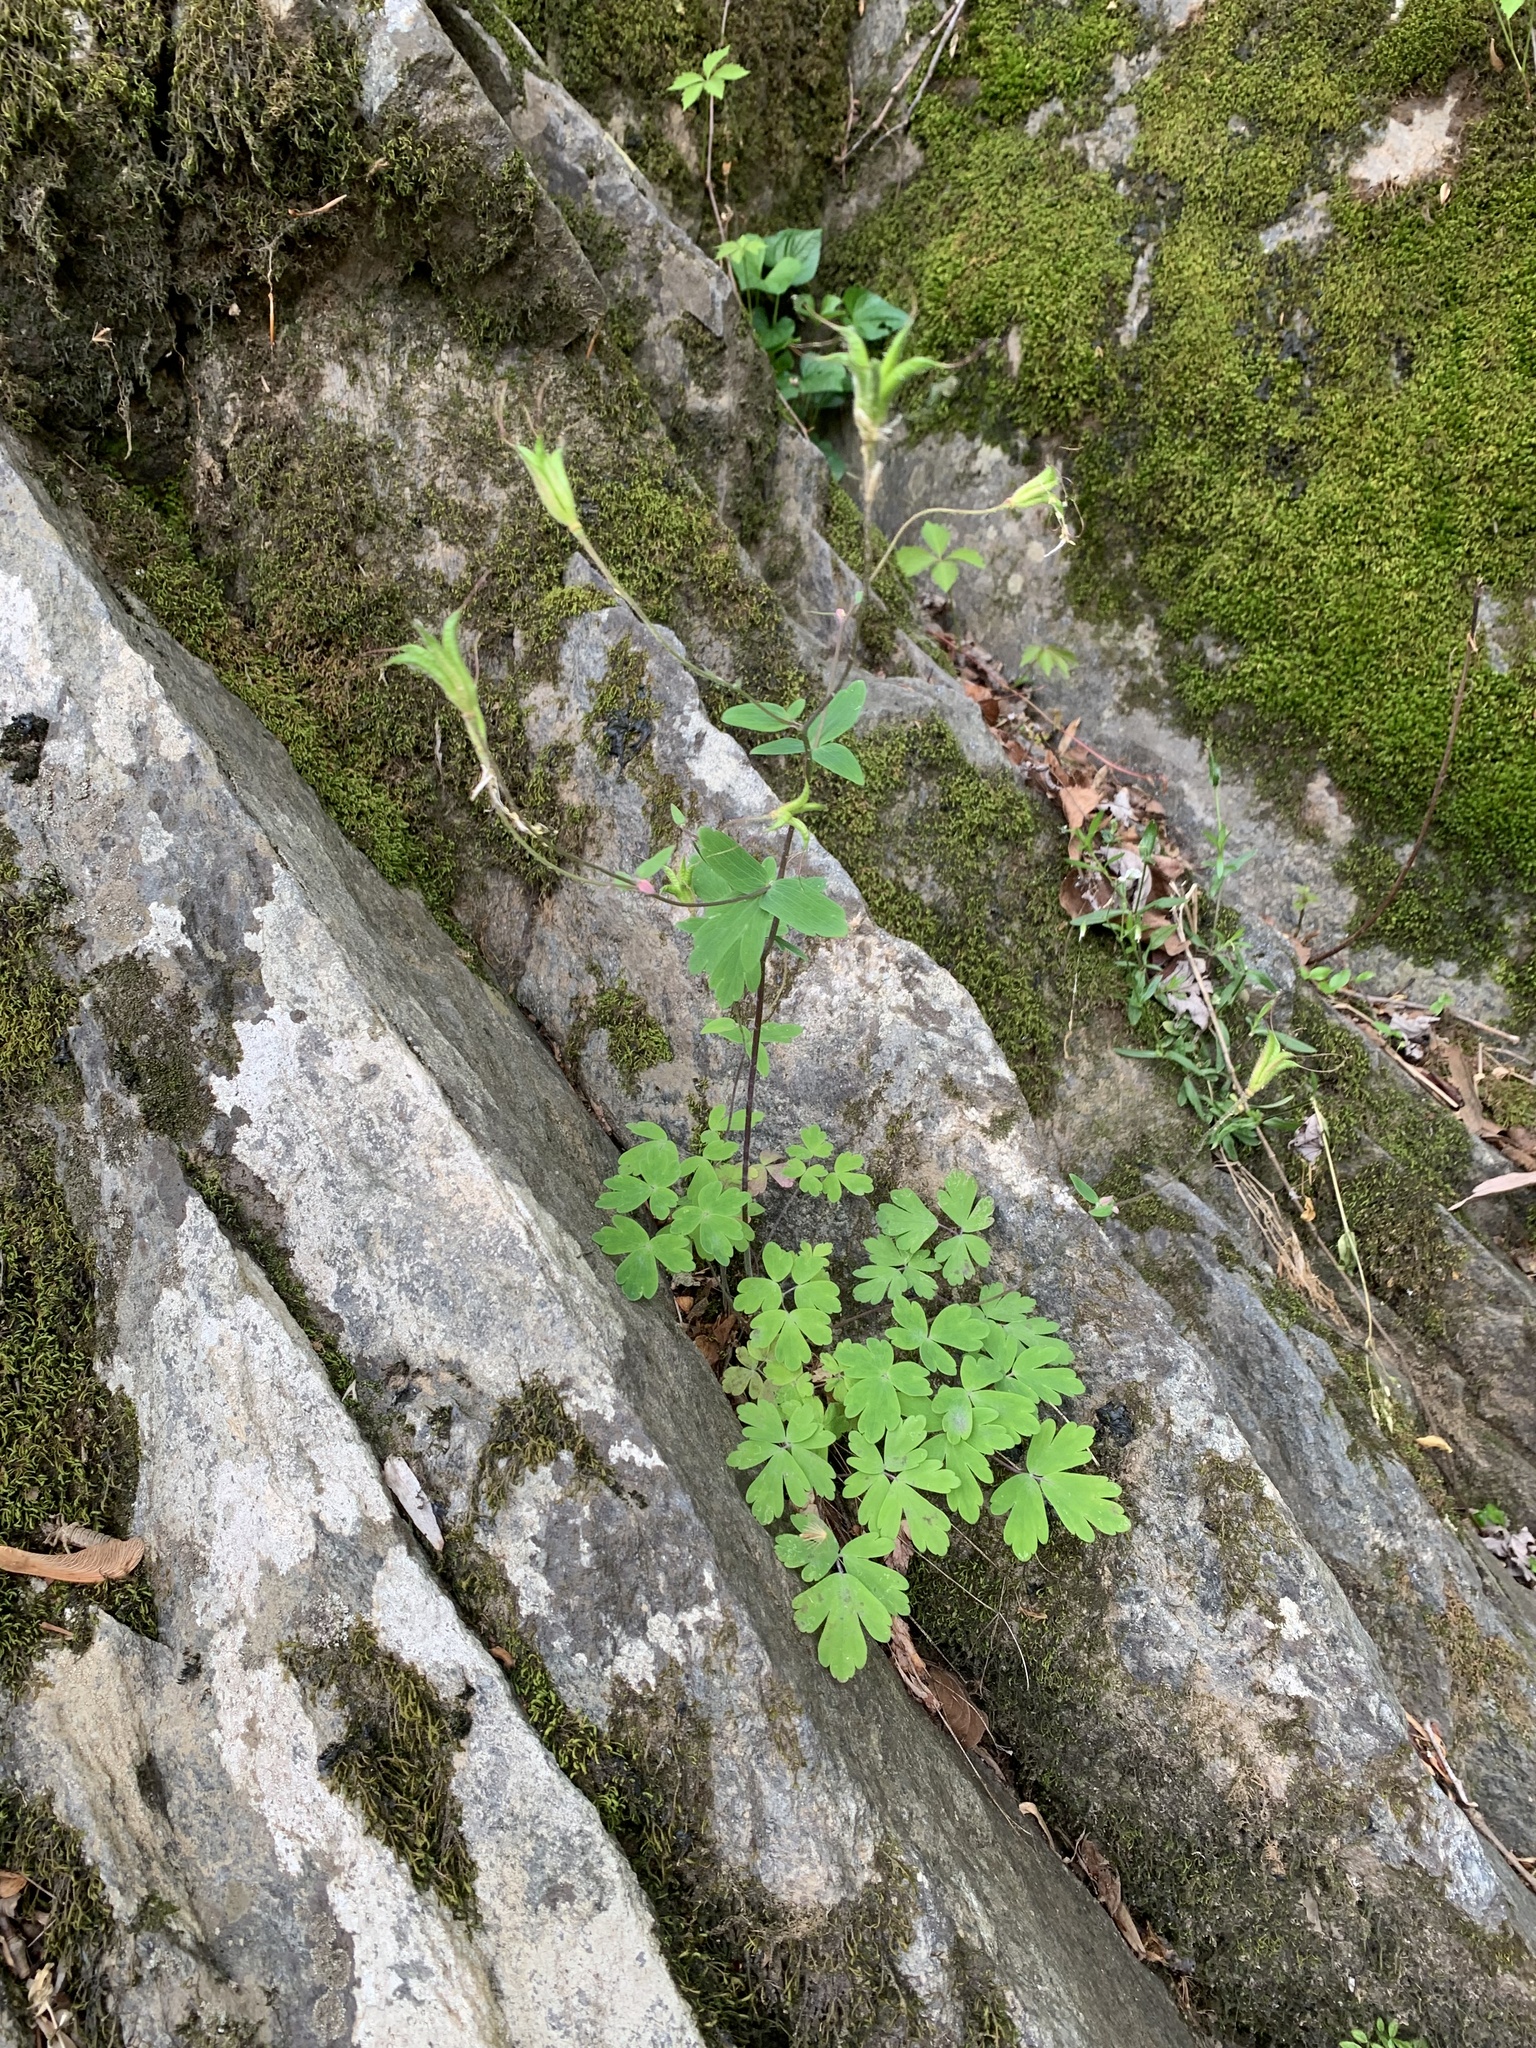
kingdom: Plantae
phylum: Tracheophyta
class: Magnoliopsida
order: Ranunculales
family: Ranunculaceae
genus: Aquilegia
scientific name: Aquilegia canadensis
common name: American columbine
